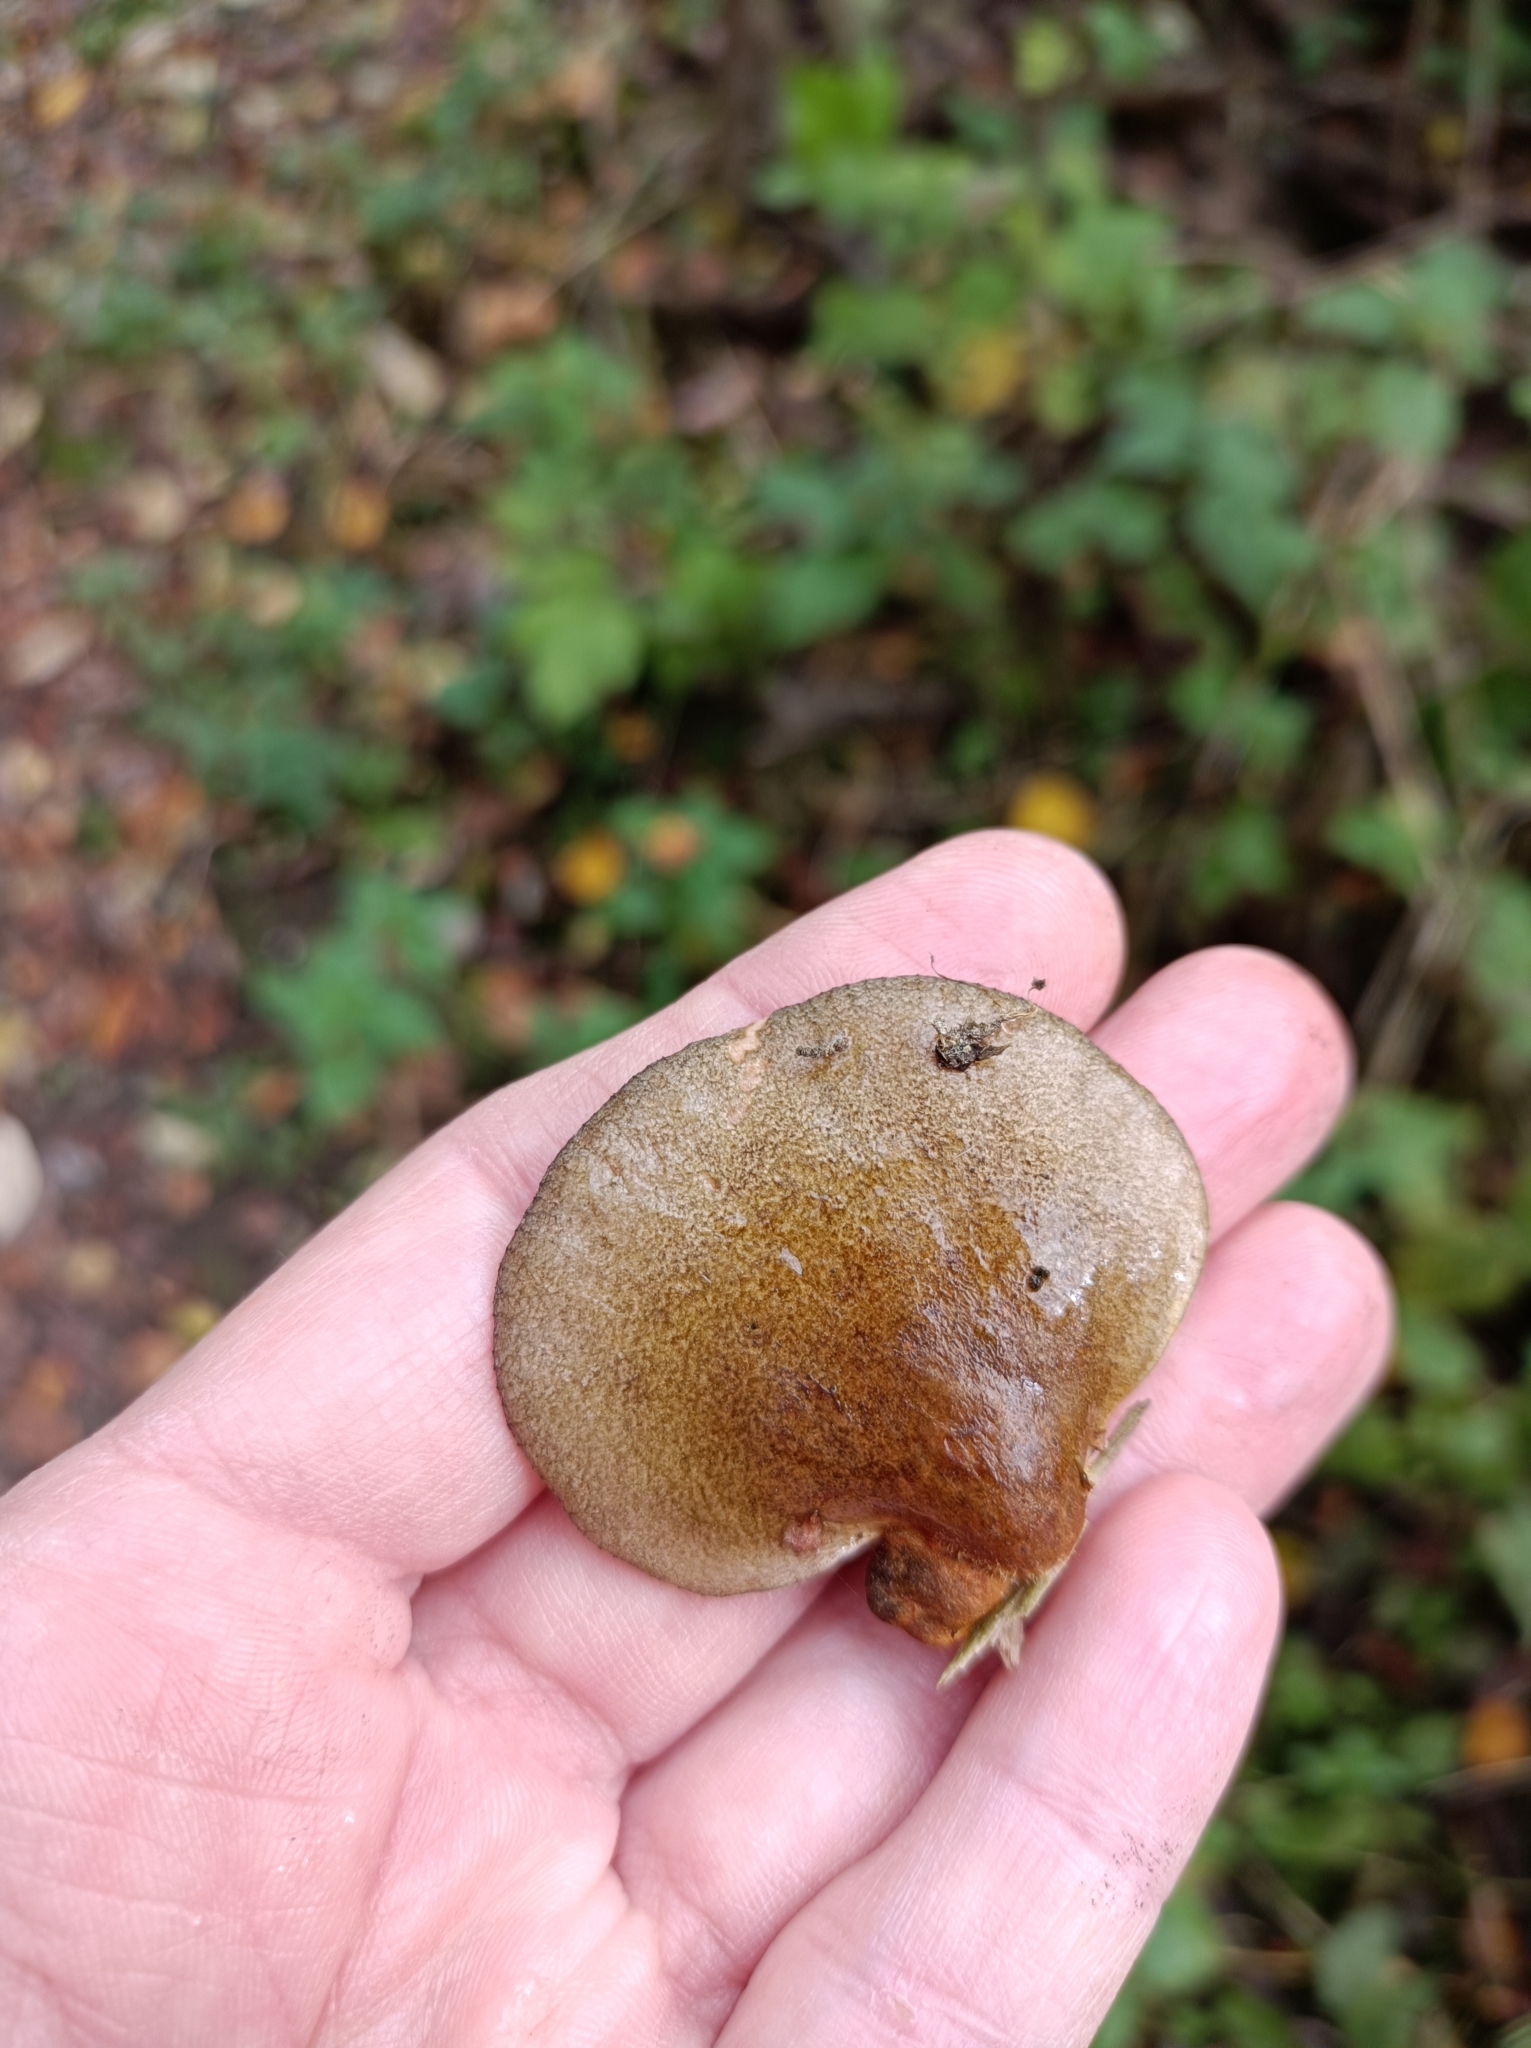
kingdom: Fungi
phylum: Basidiomycota
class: Agaricomycetes
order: Agaricales
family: Sarcomyxaceae
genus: Sarcomyxa
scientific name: Sarcomyxa serotina
